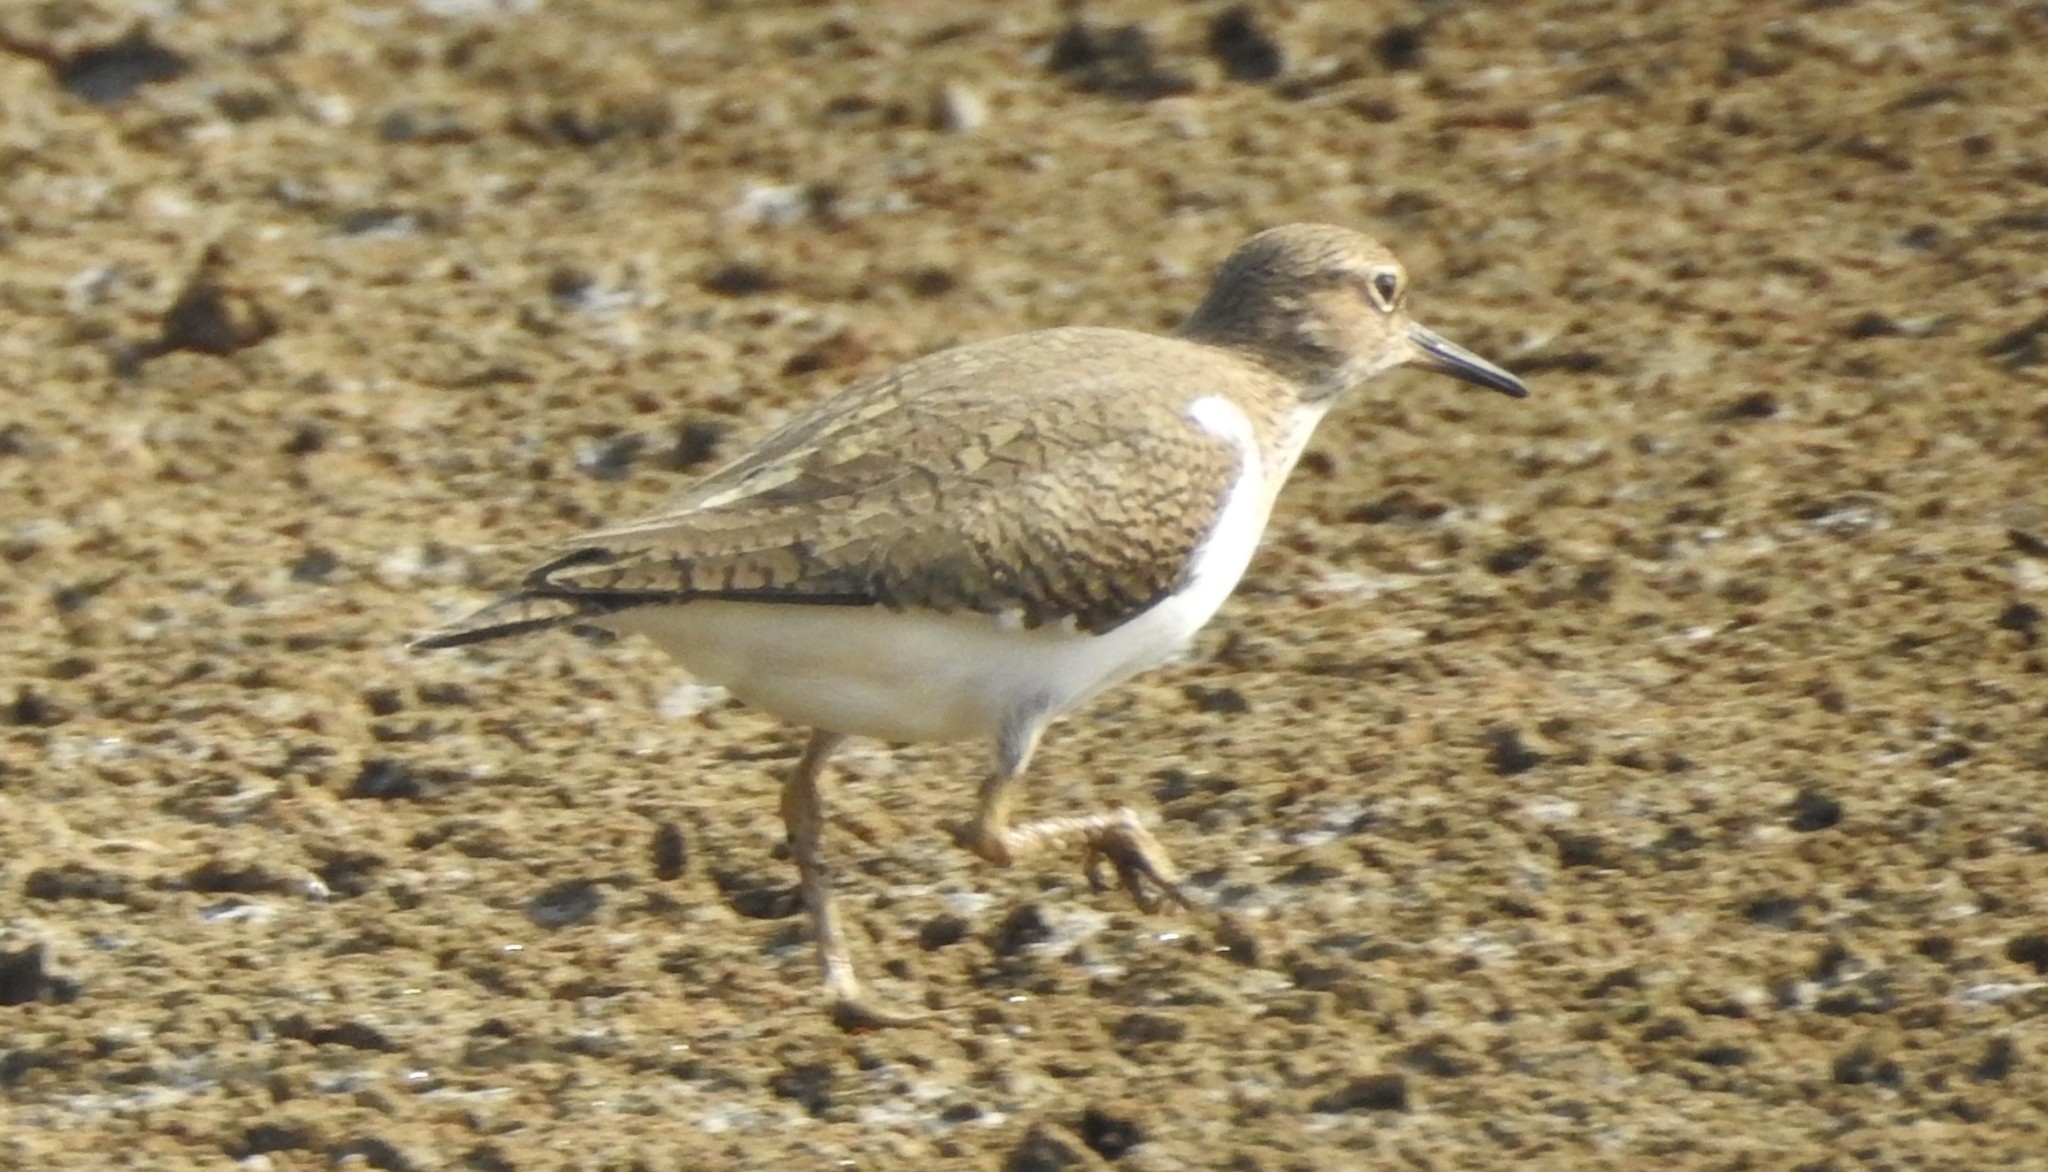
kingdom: Animalia
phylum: Chordata
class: Aves
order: Charadriiformes
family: Scolopacidae
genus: Actitis
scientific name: Actitis hypoleucos
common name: Common sandpiper
